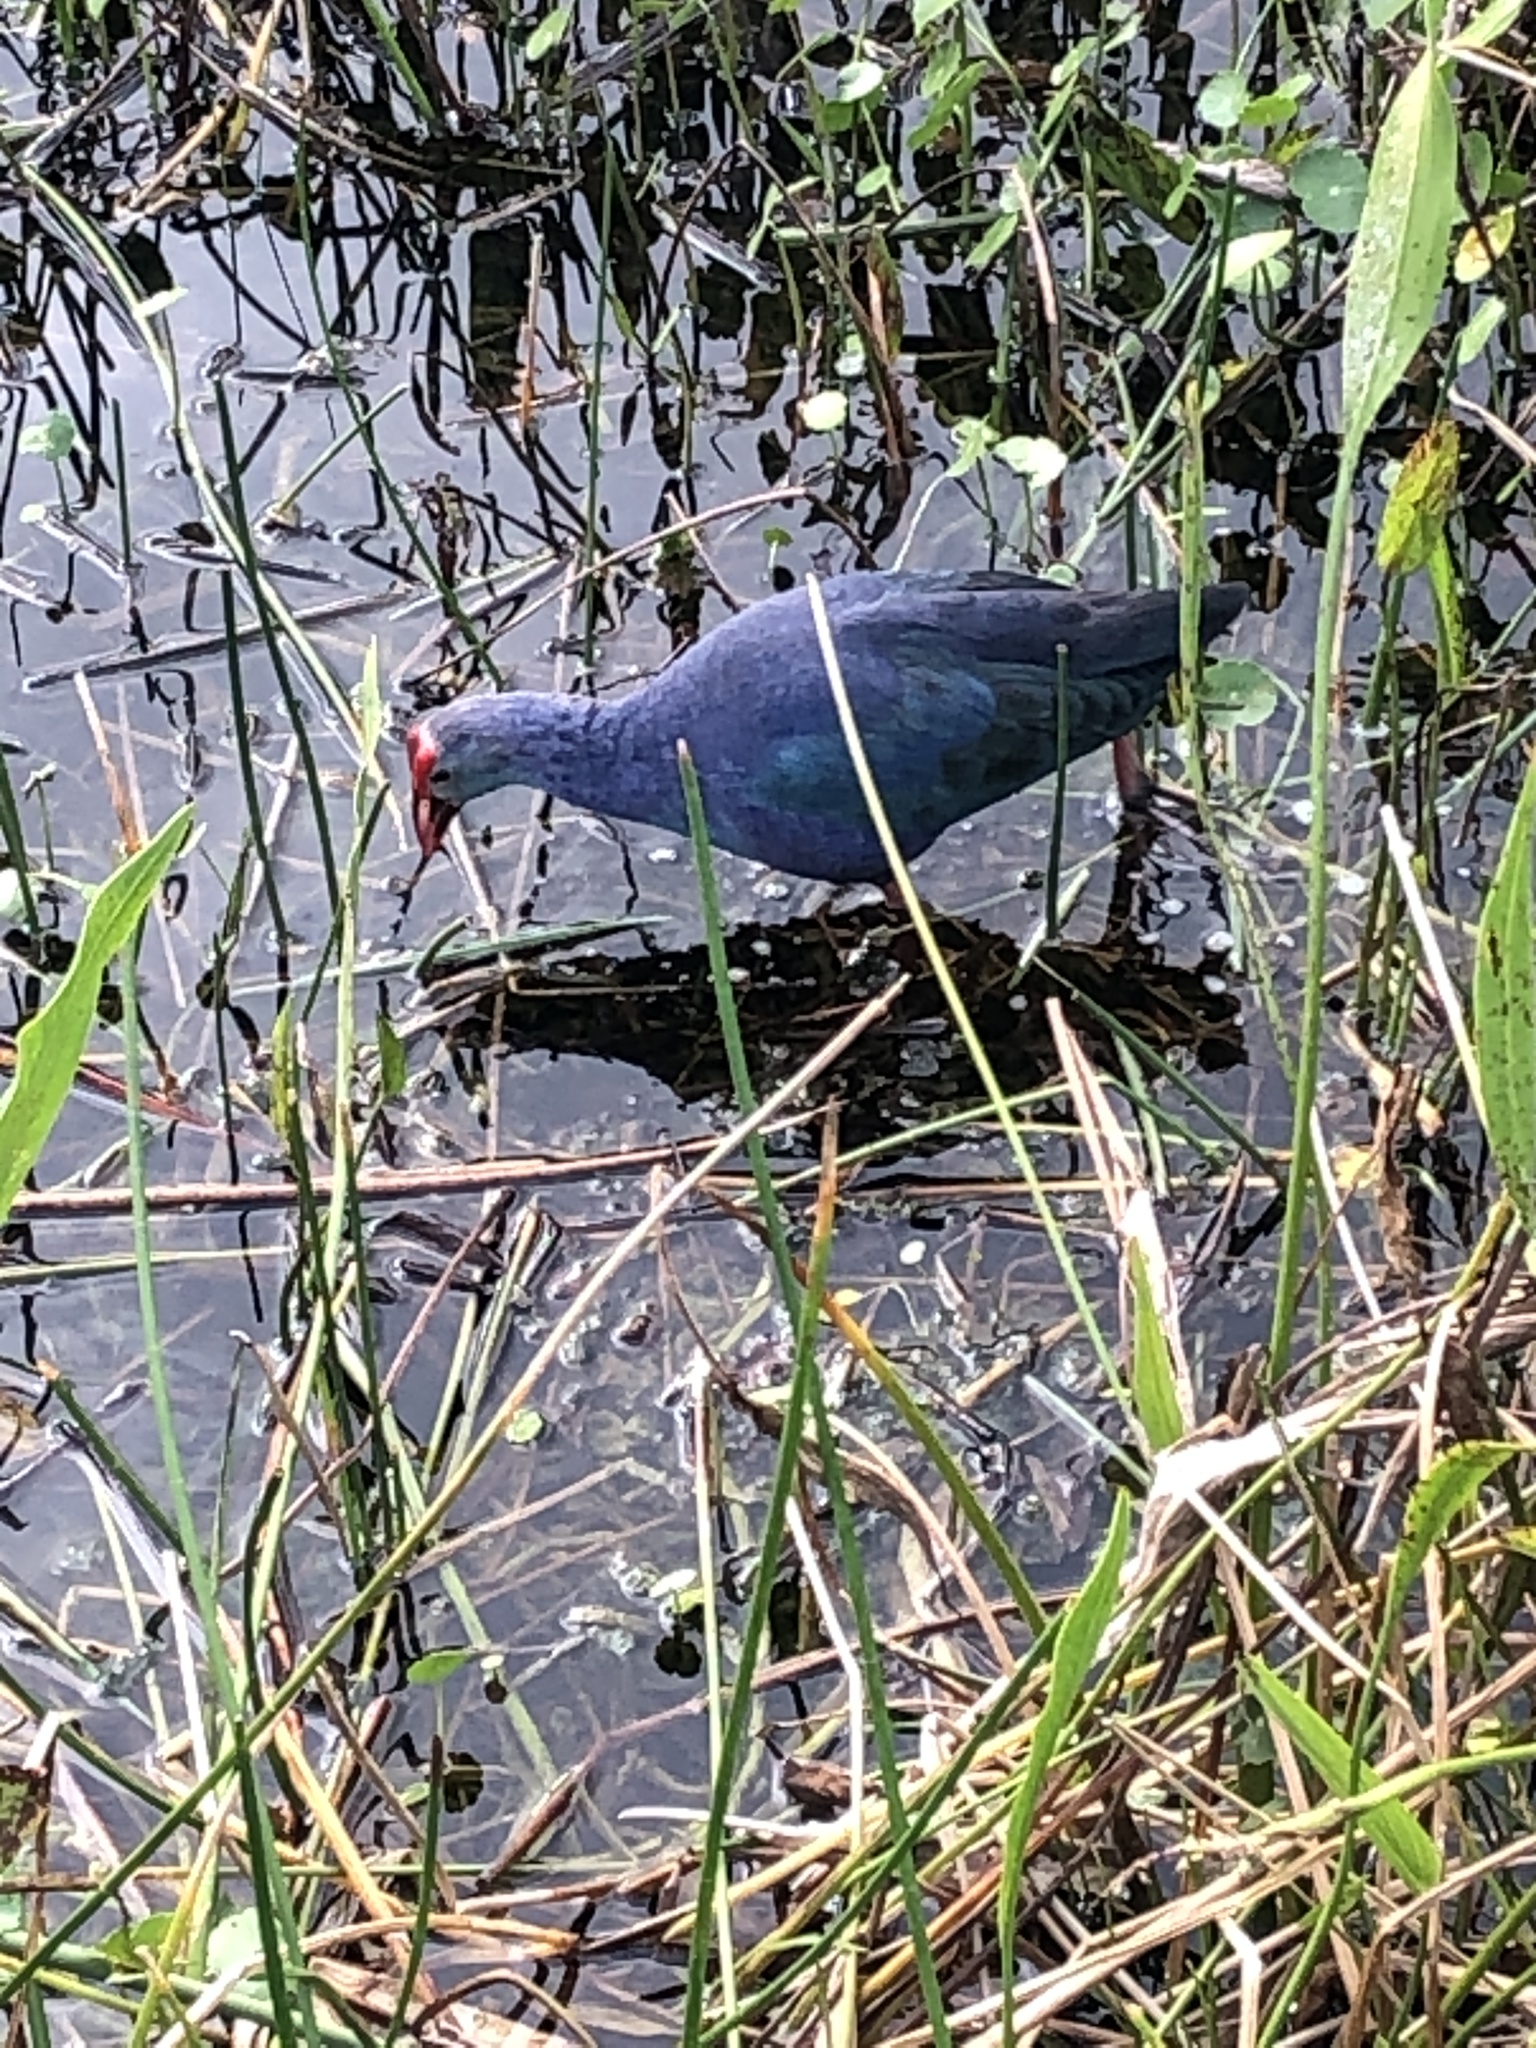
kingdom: Animalia
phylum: Chordata
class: Aves
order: Gruiformes
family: Rallidae
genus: Porphyrio
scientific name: Porphyrio martinica
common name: Purple gallinule
